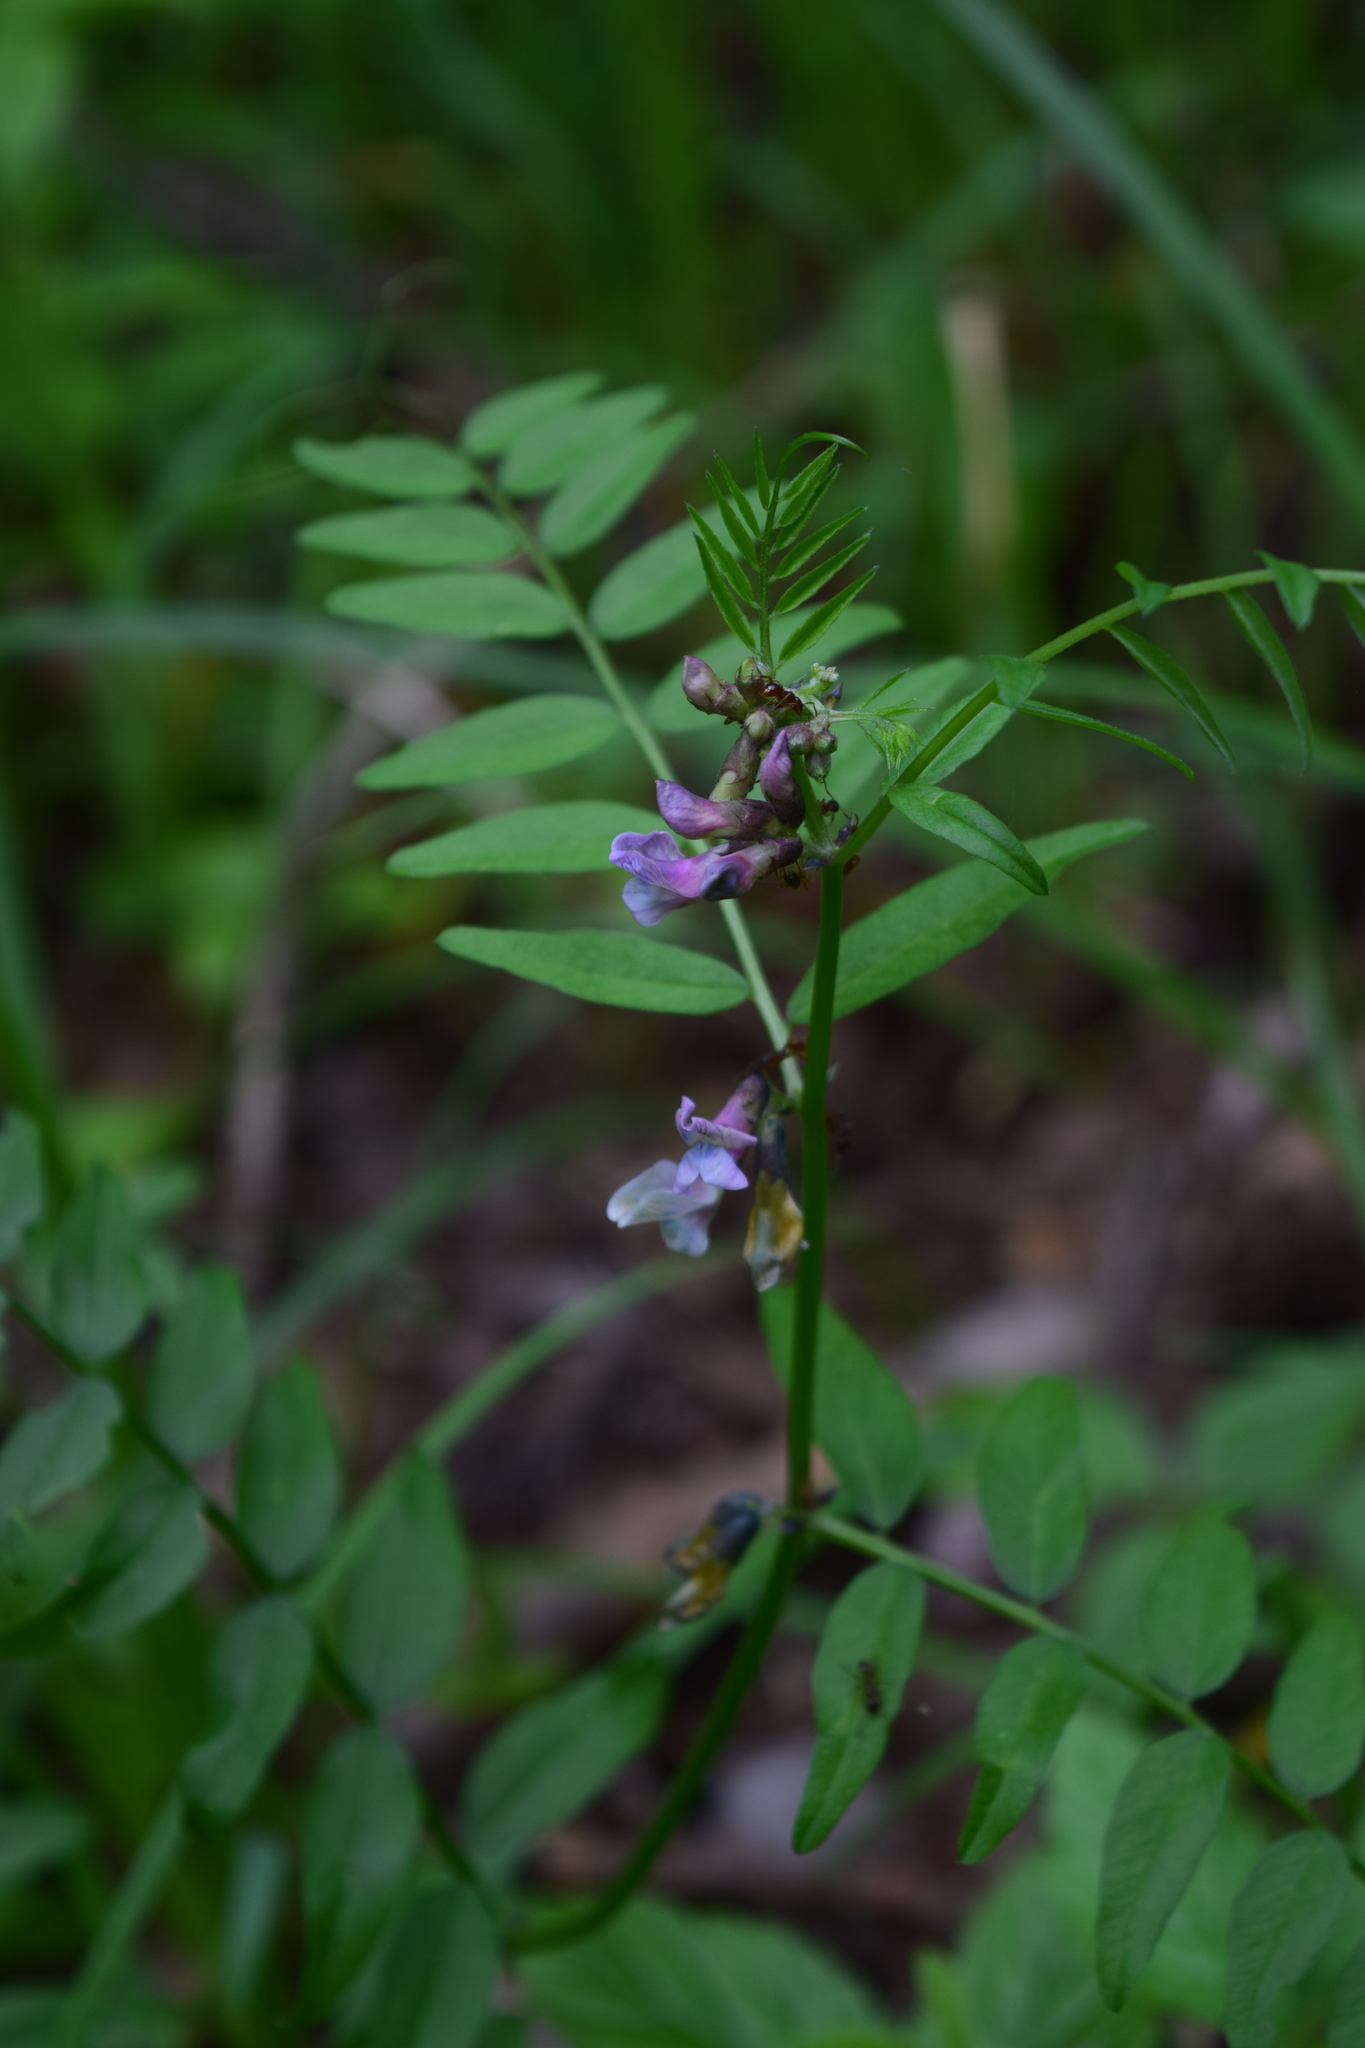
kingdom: Plantae
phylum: Tracheophyta
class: Magnoliopsida
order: Fabales
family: Fabaceae
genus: Vicia
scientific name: Vicia sepium
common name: Bush vetch
